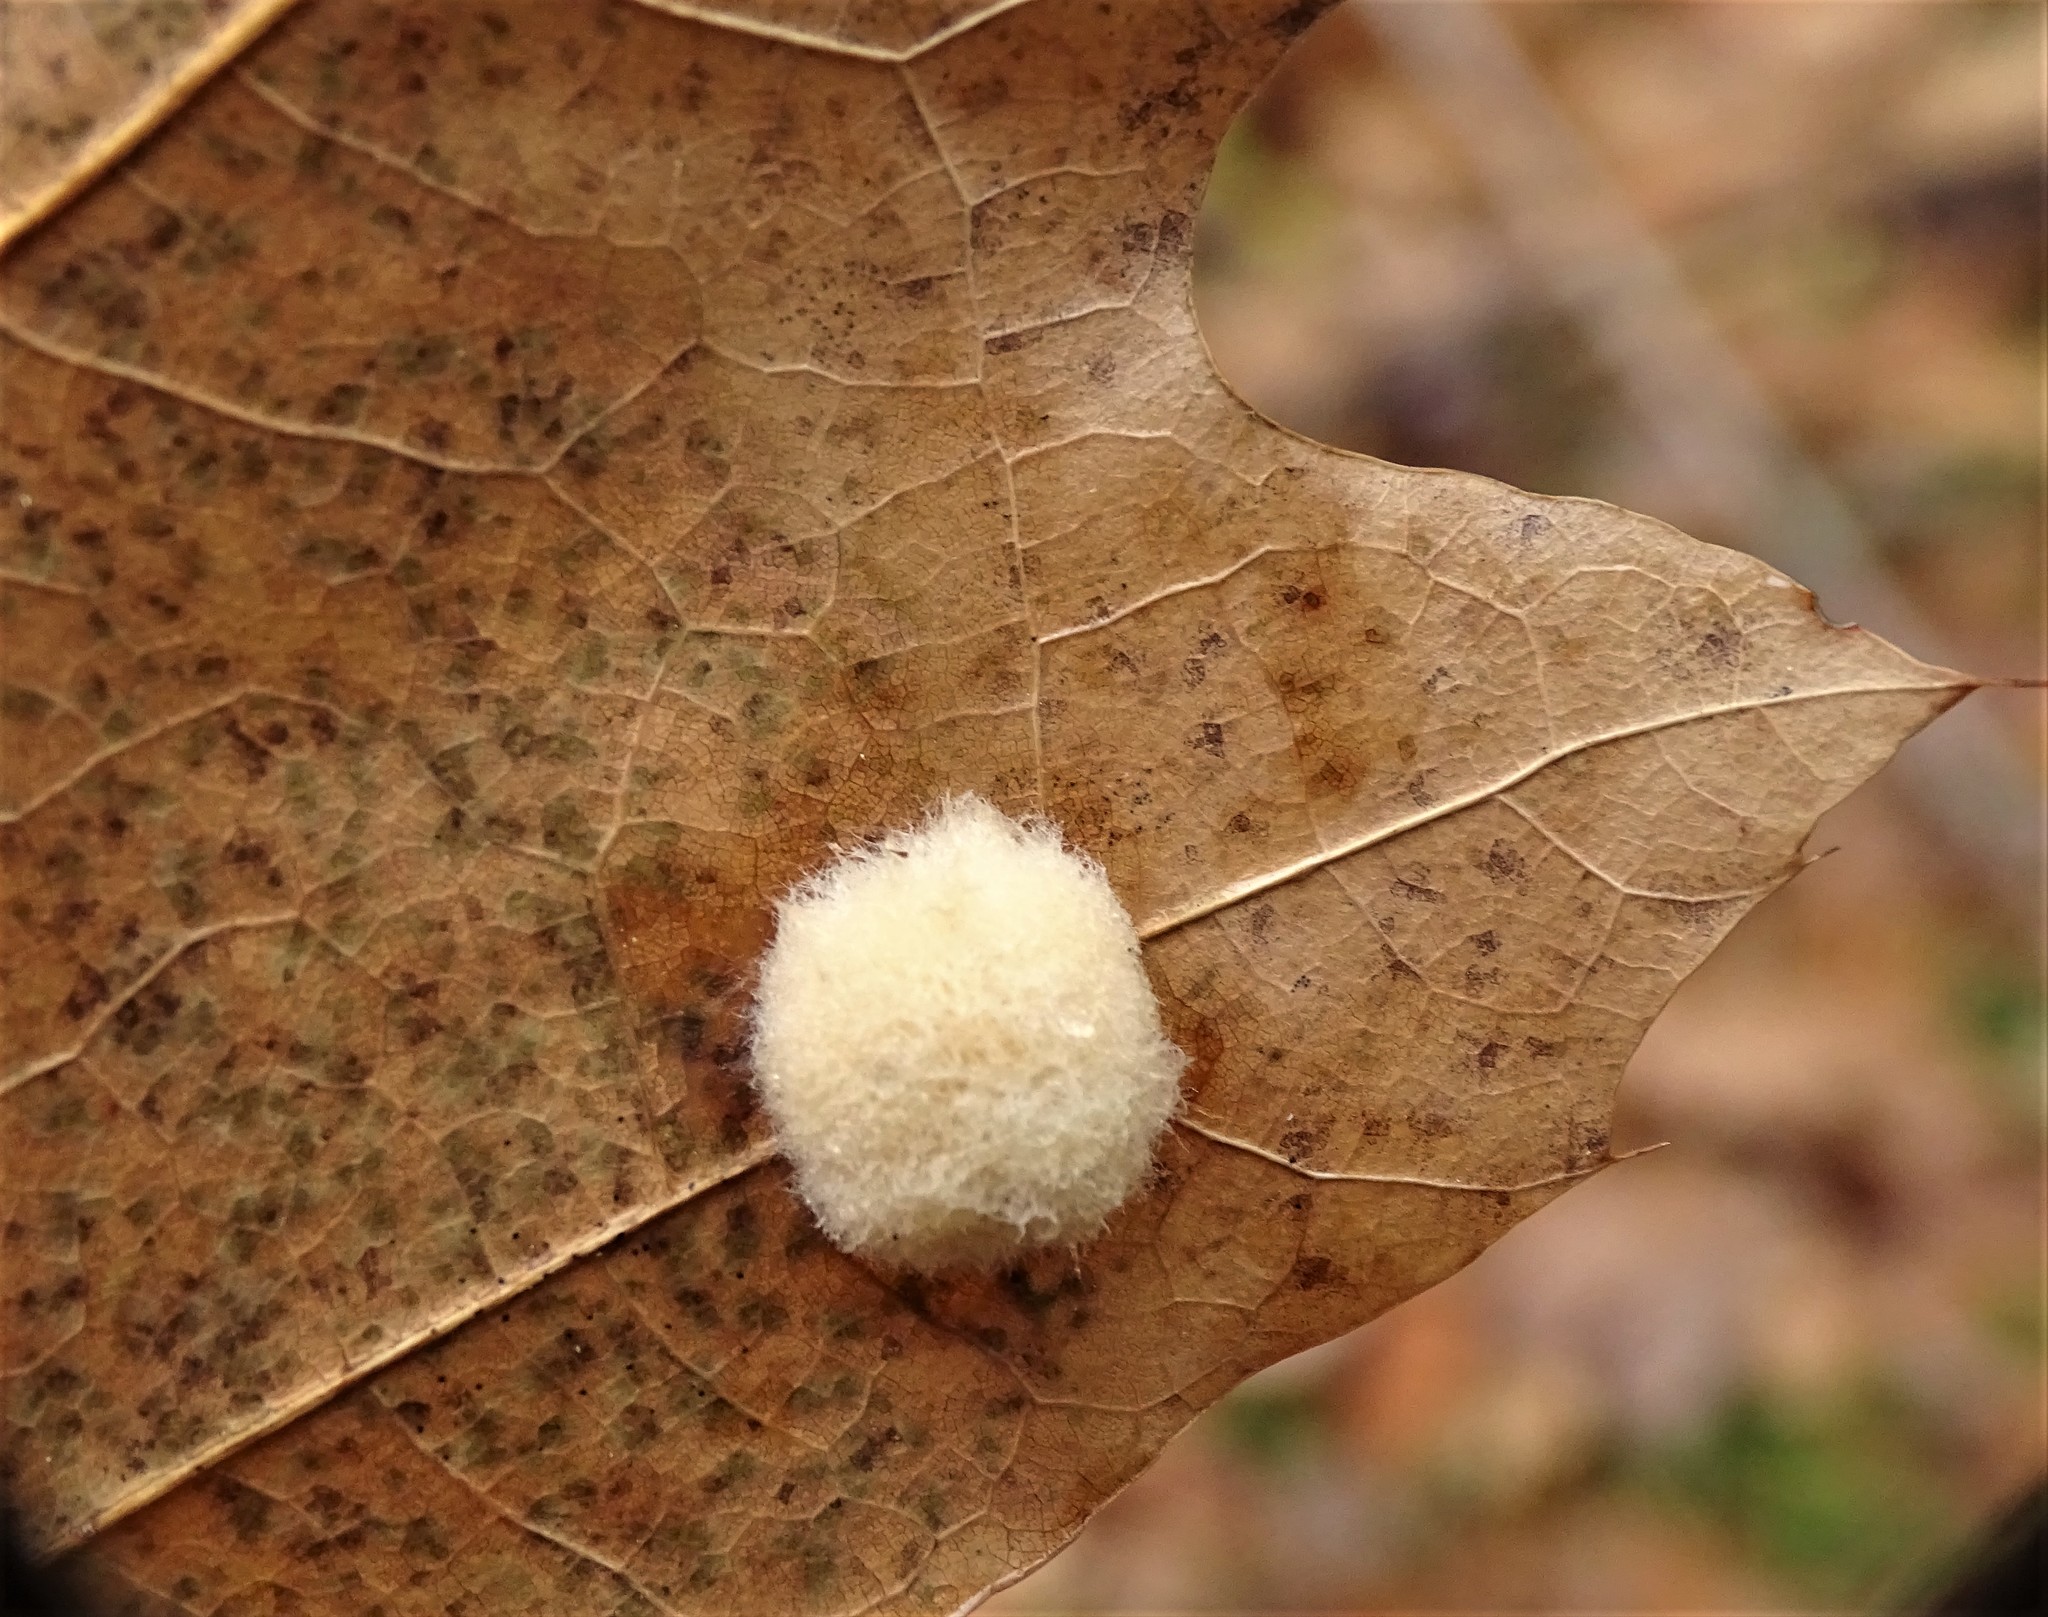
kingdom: Animalia
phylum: Arthropoda
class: Insecta
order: Hymenoptera
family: Cynipidae
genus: Callirhytis
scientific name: Callirhytis
